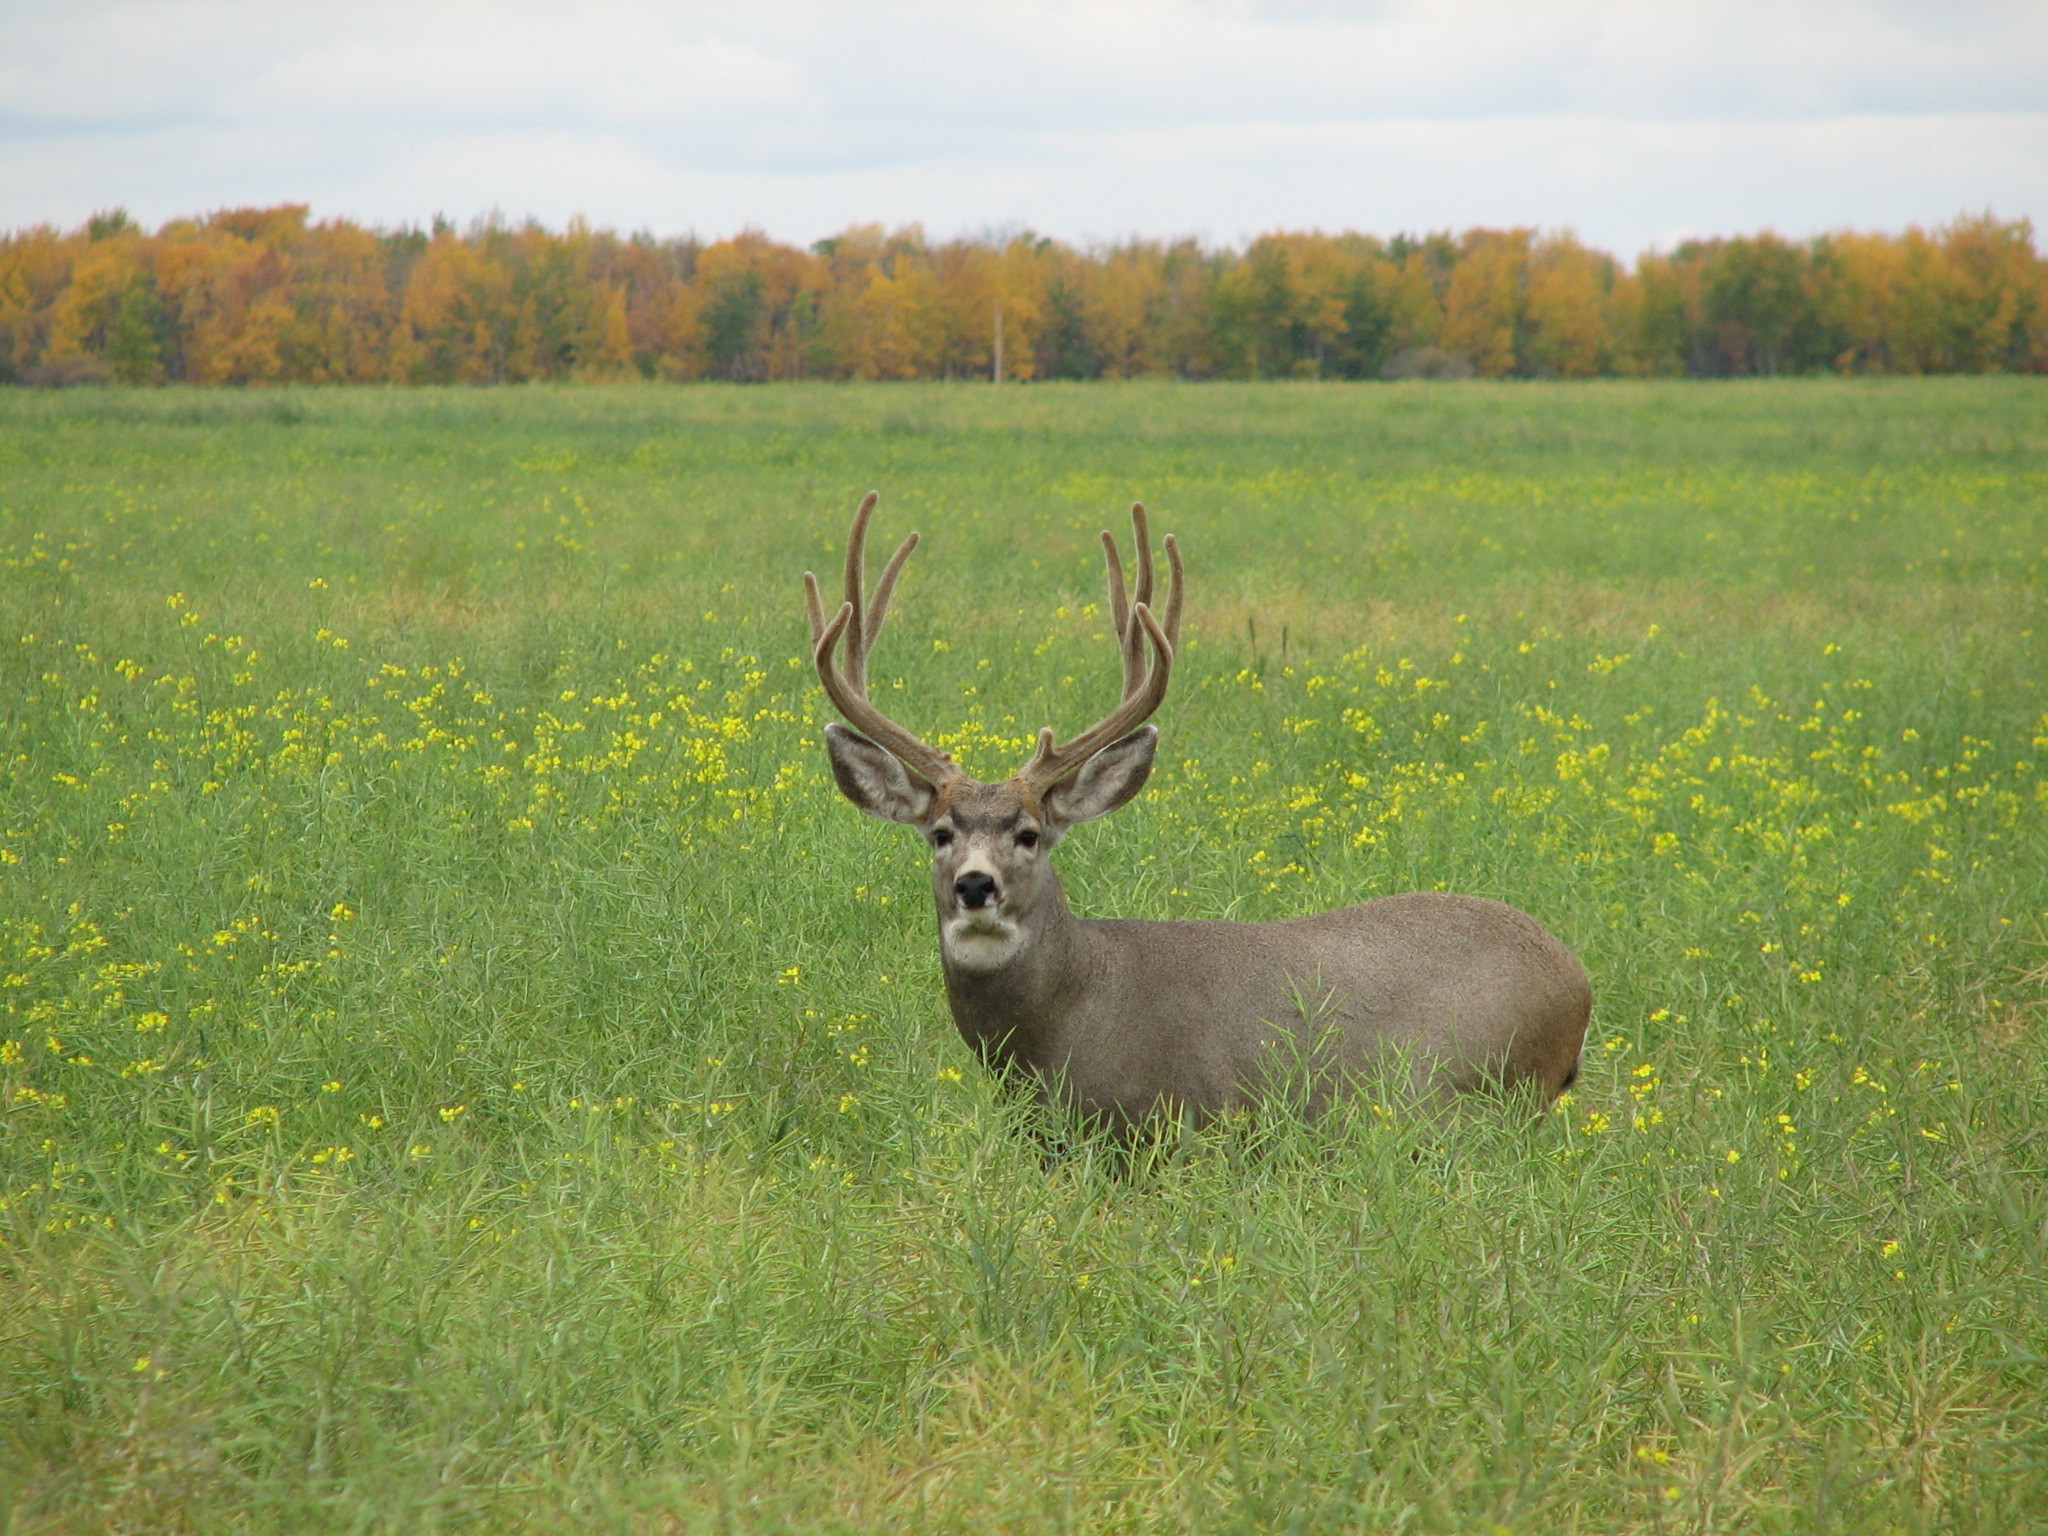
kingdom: Animalia
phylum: Chordata
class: Mammalia
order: Artiodactyla
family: Cervidae
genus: Odocoileus
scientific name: Odocoileus hemionus
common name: Mule deer
